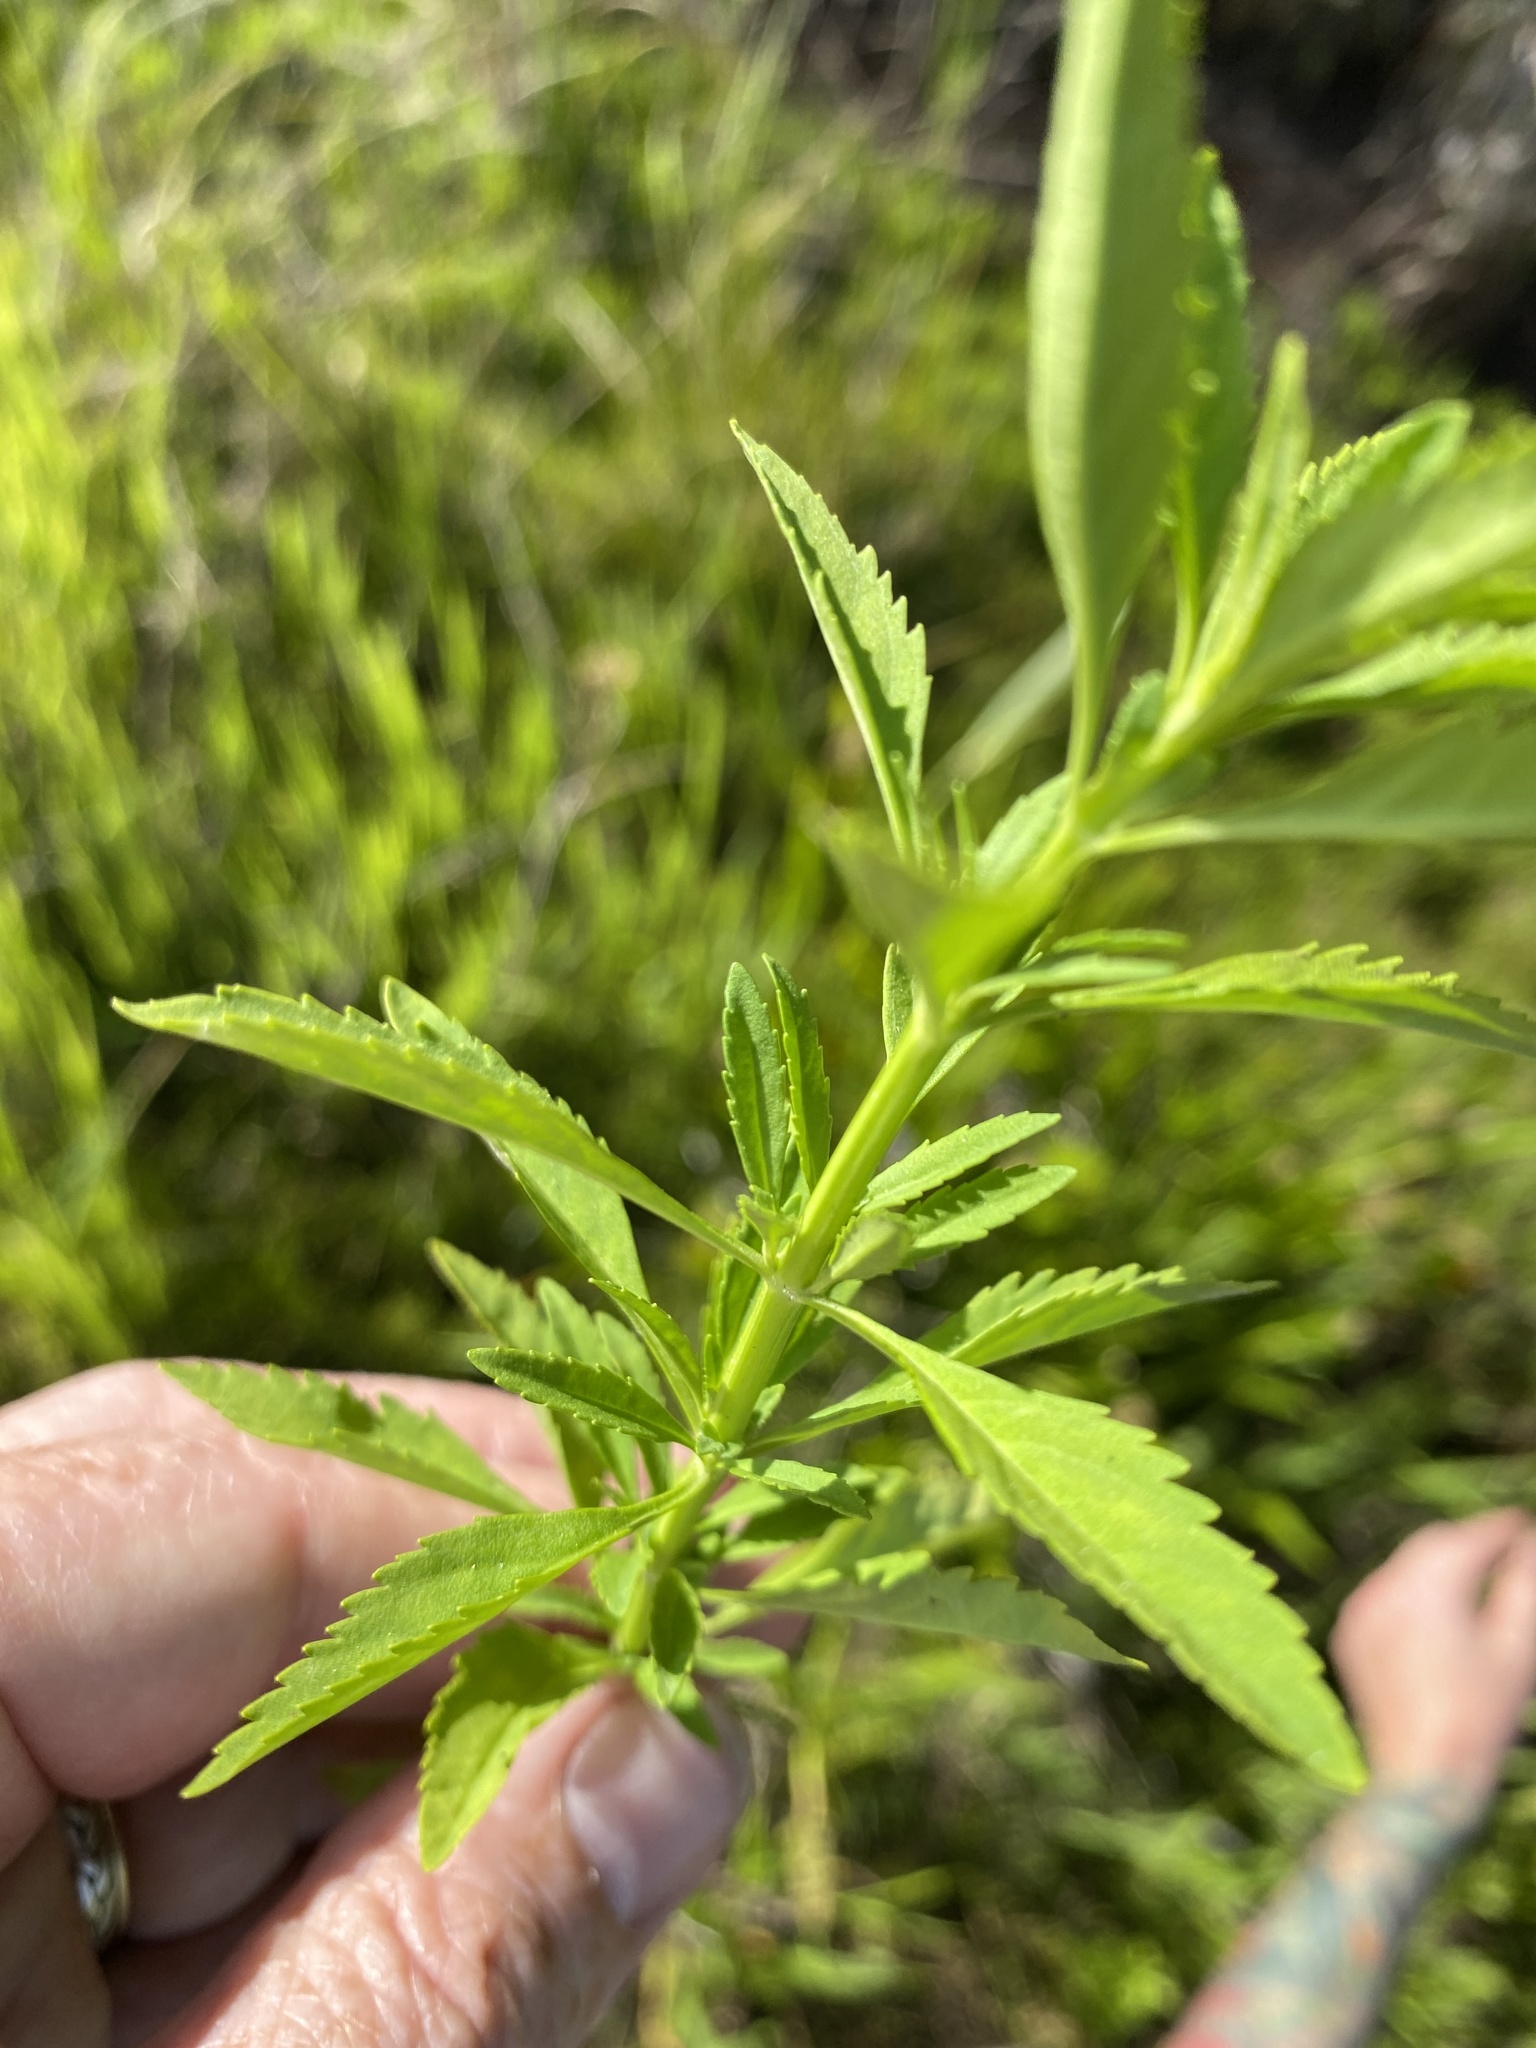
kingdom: Plantae
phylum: Tracheophyta
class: Magnoliopsida
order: Lamiales
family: Plantaginaceae
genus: Scoparia
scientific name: Scoparia dulcis
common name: Scoparia-weed
